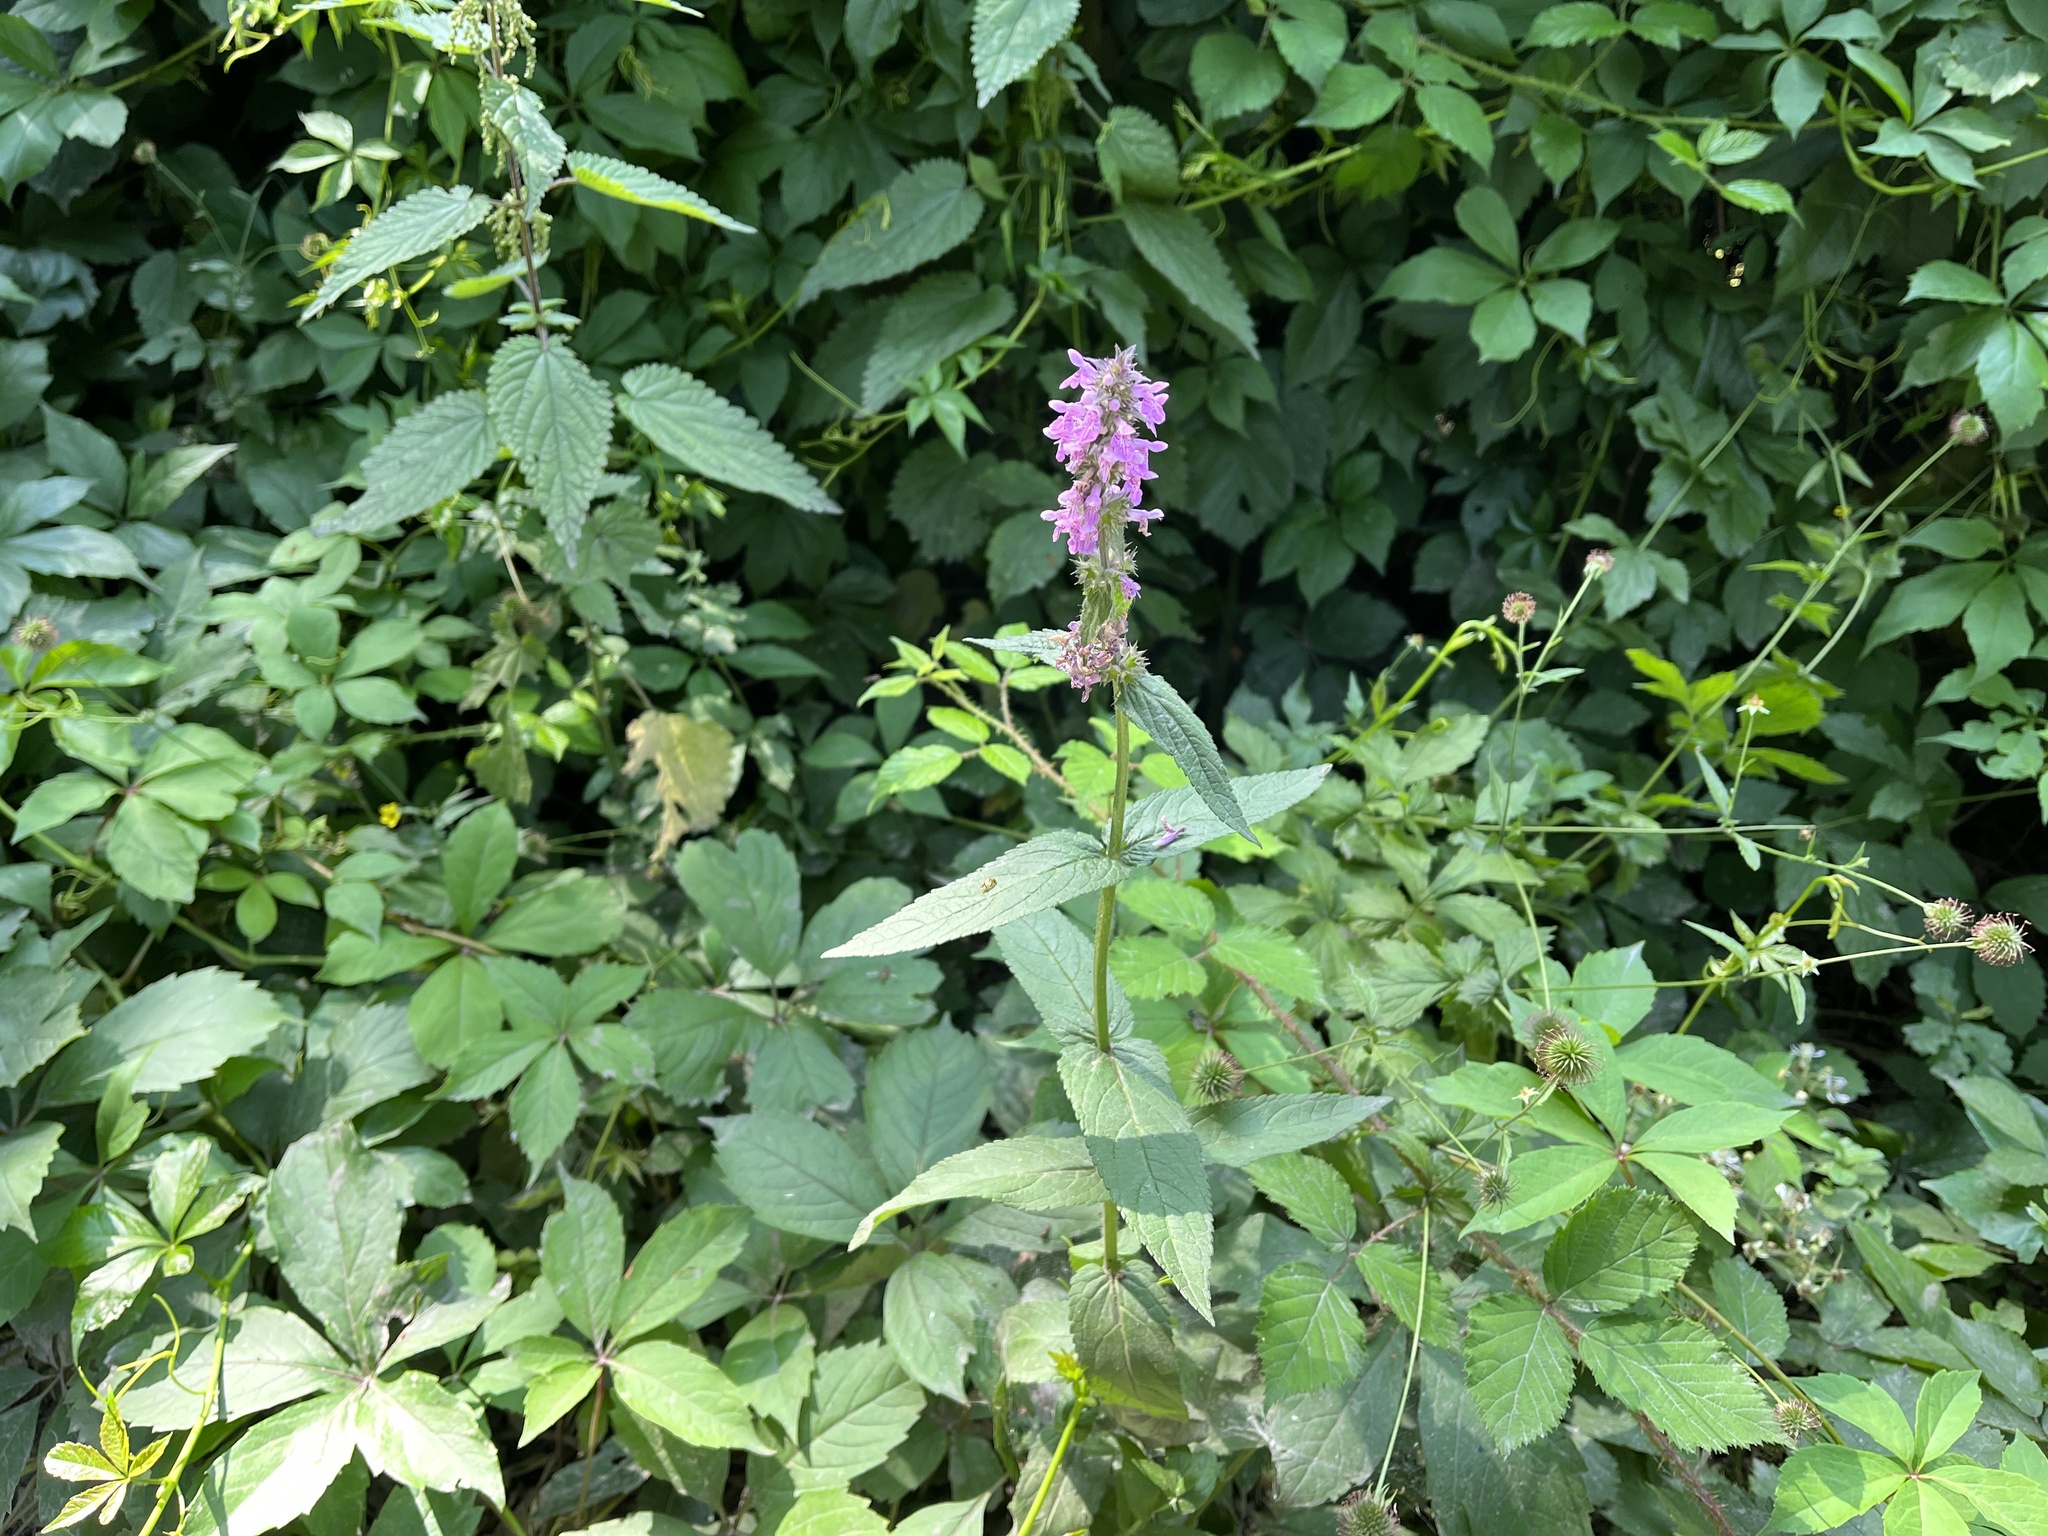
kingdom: Plantae
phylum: Tracheophyta
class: Magnoliopsida
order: Lamiales
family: Lamiaceae
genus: Stachys
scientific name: Stachys palustris
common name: Marsh woundwort
